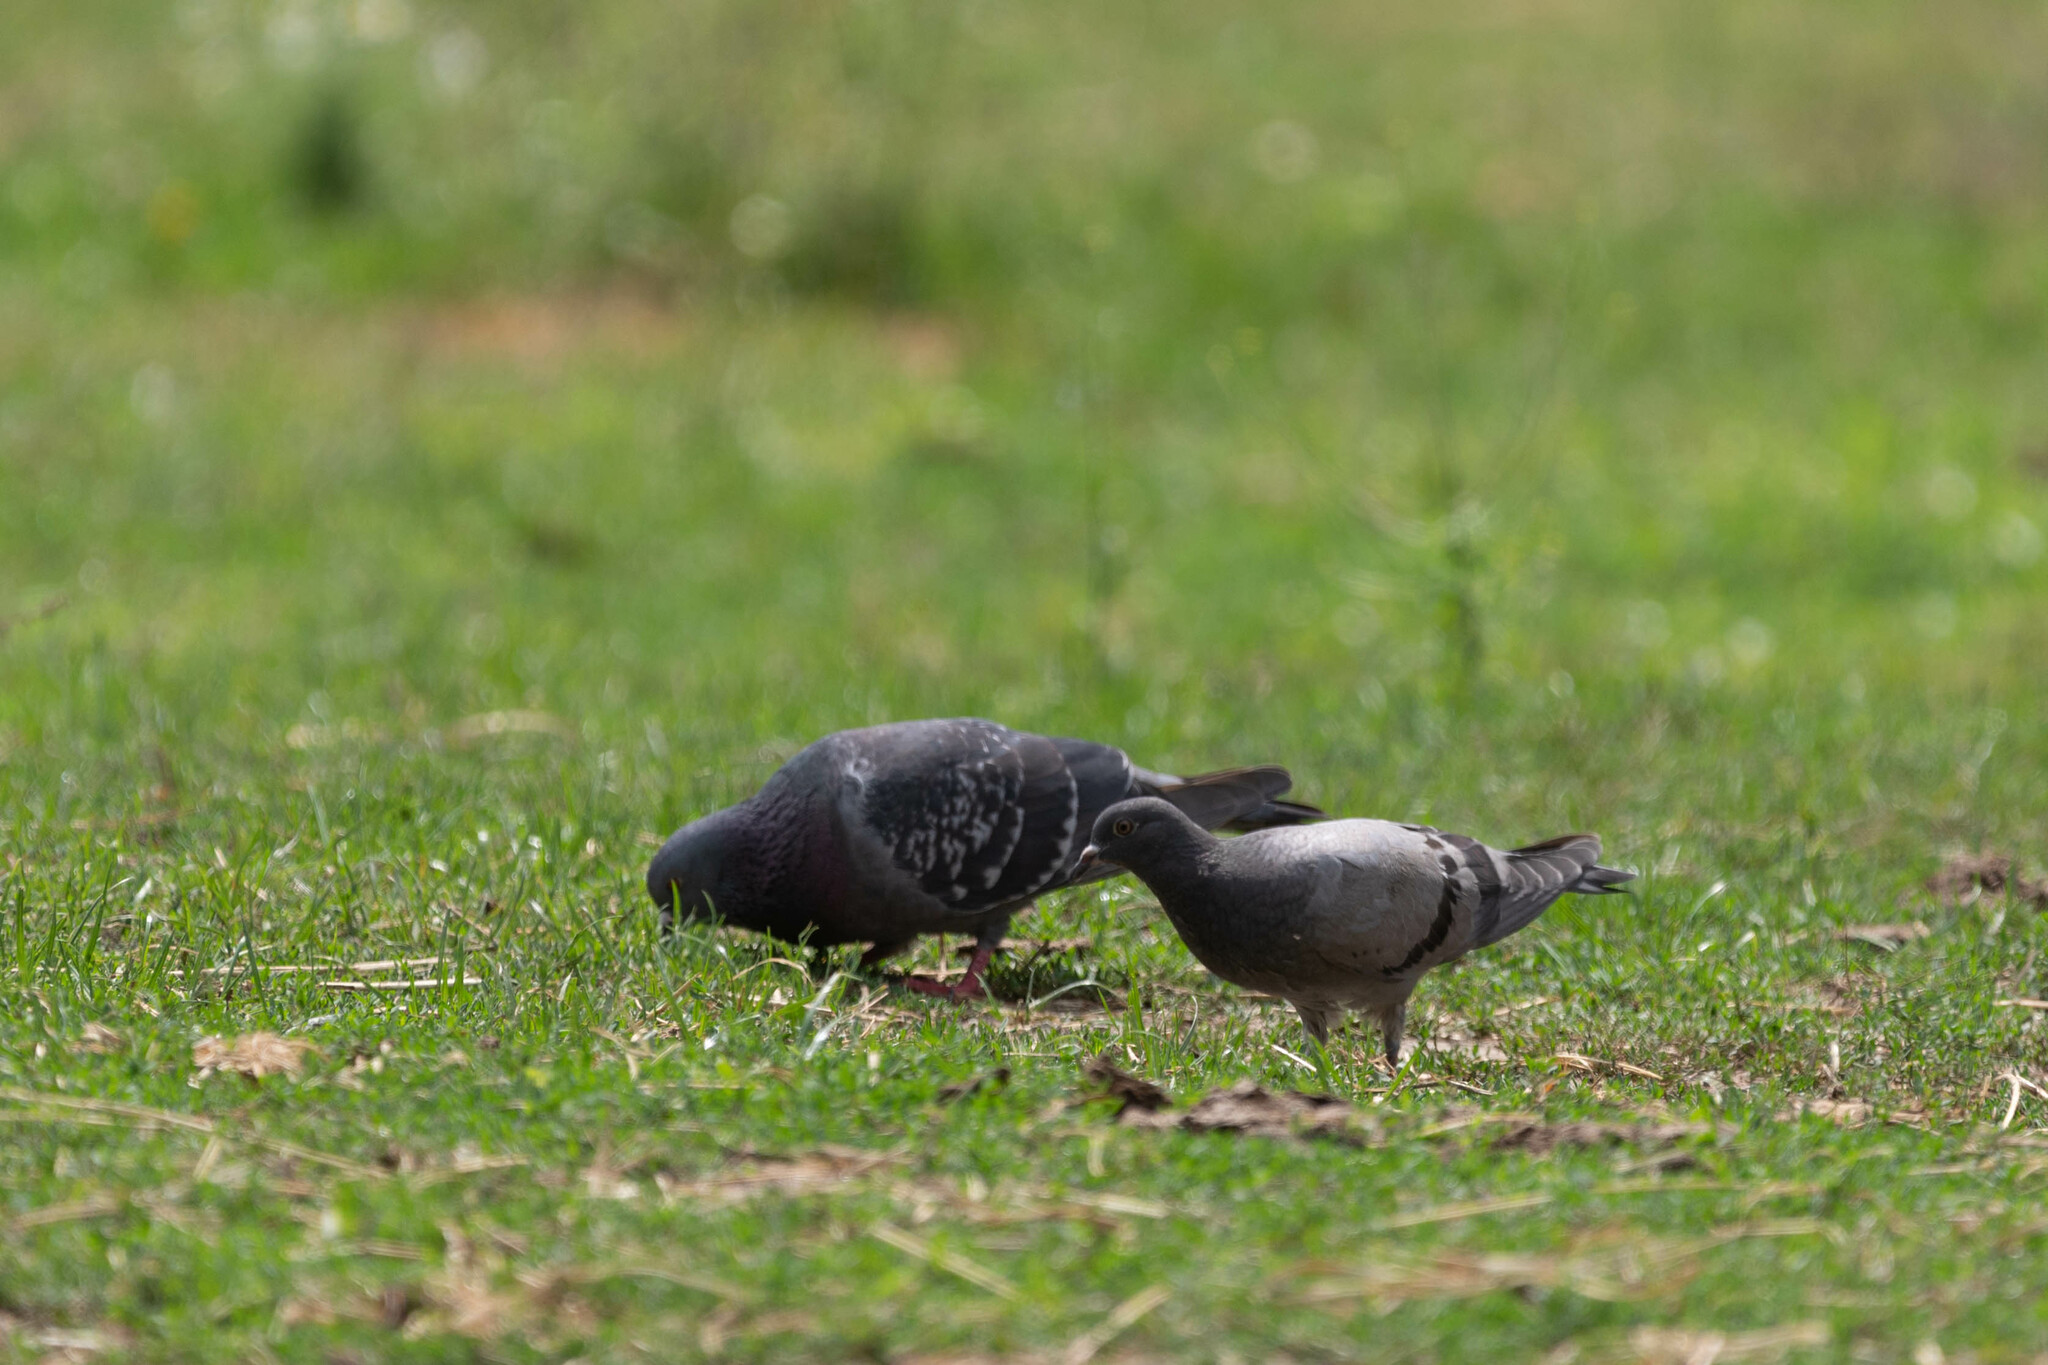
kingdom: Animalia
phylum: Chordata
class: Aves
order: Columbiformes
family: Columbidae
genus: Columba
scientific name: Columba livia
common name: Rock pigeon
